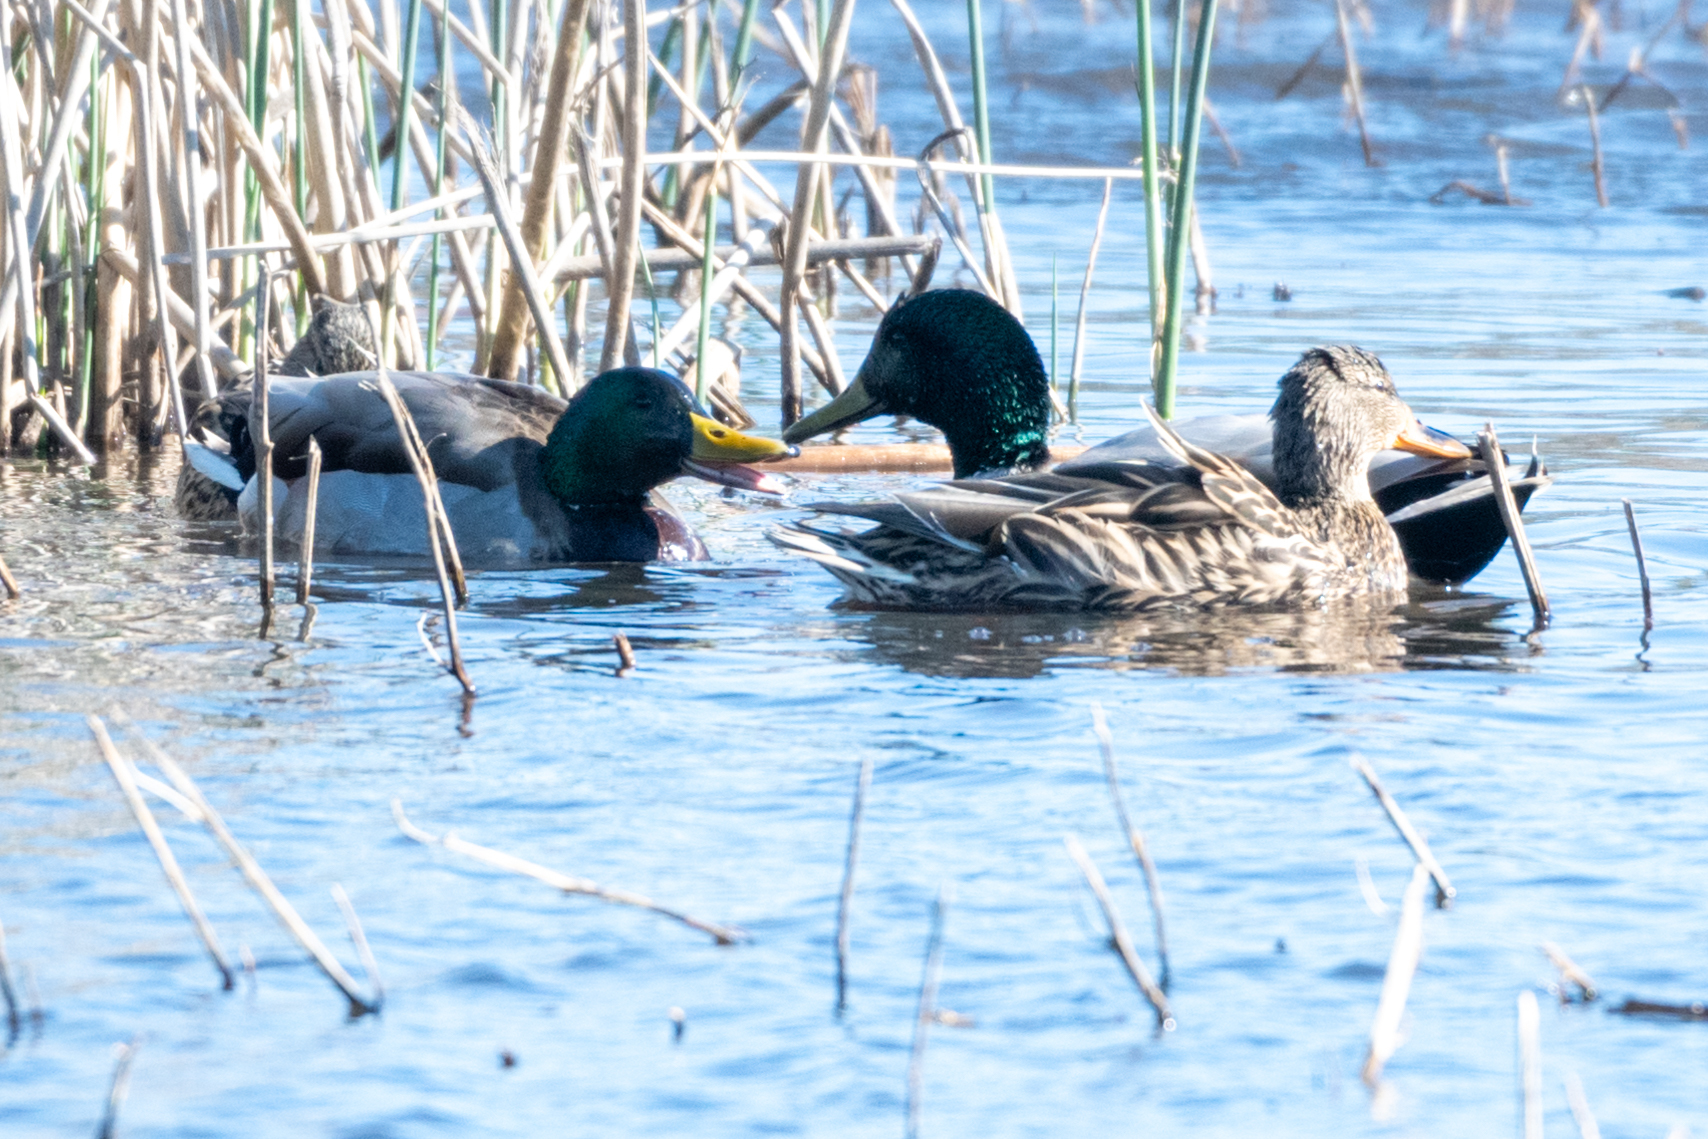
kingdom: Animalia
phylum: Chordata
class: Aves
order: Anseriformes
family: Anatidae
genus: Anas
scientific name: Anas platyrhynchos
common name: Mallard
